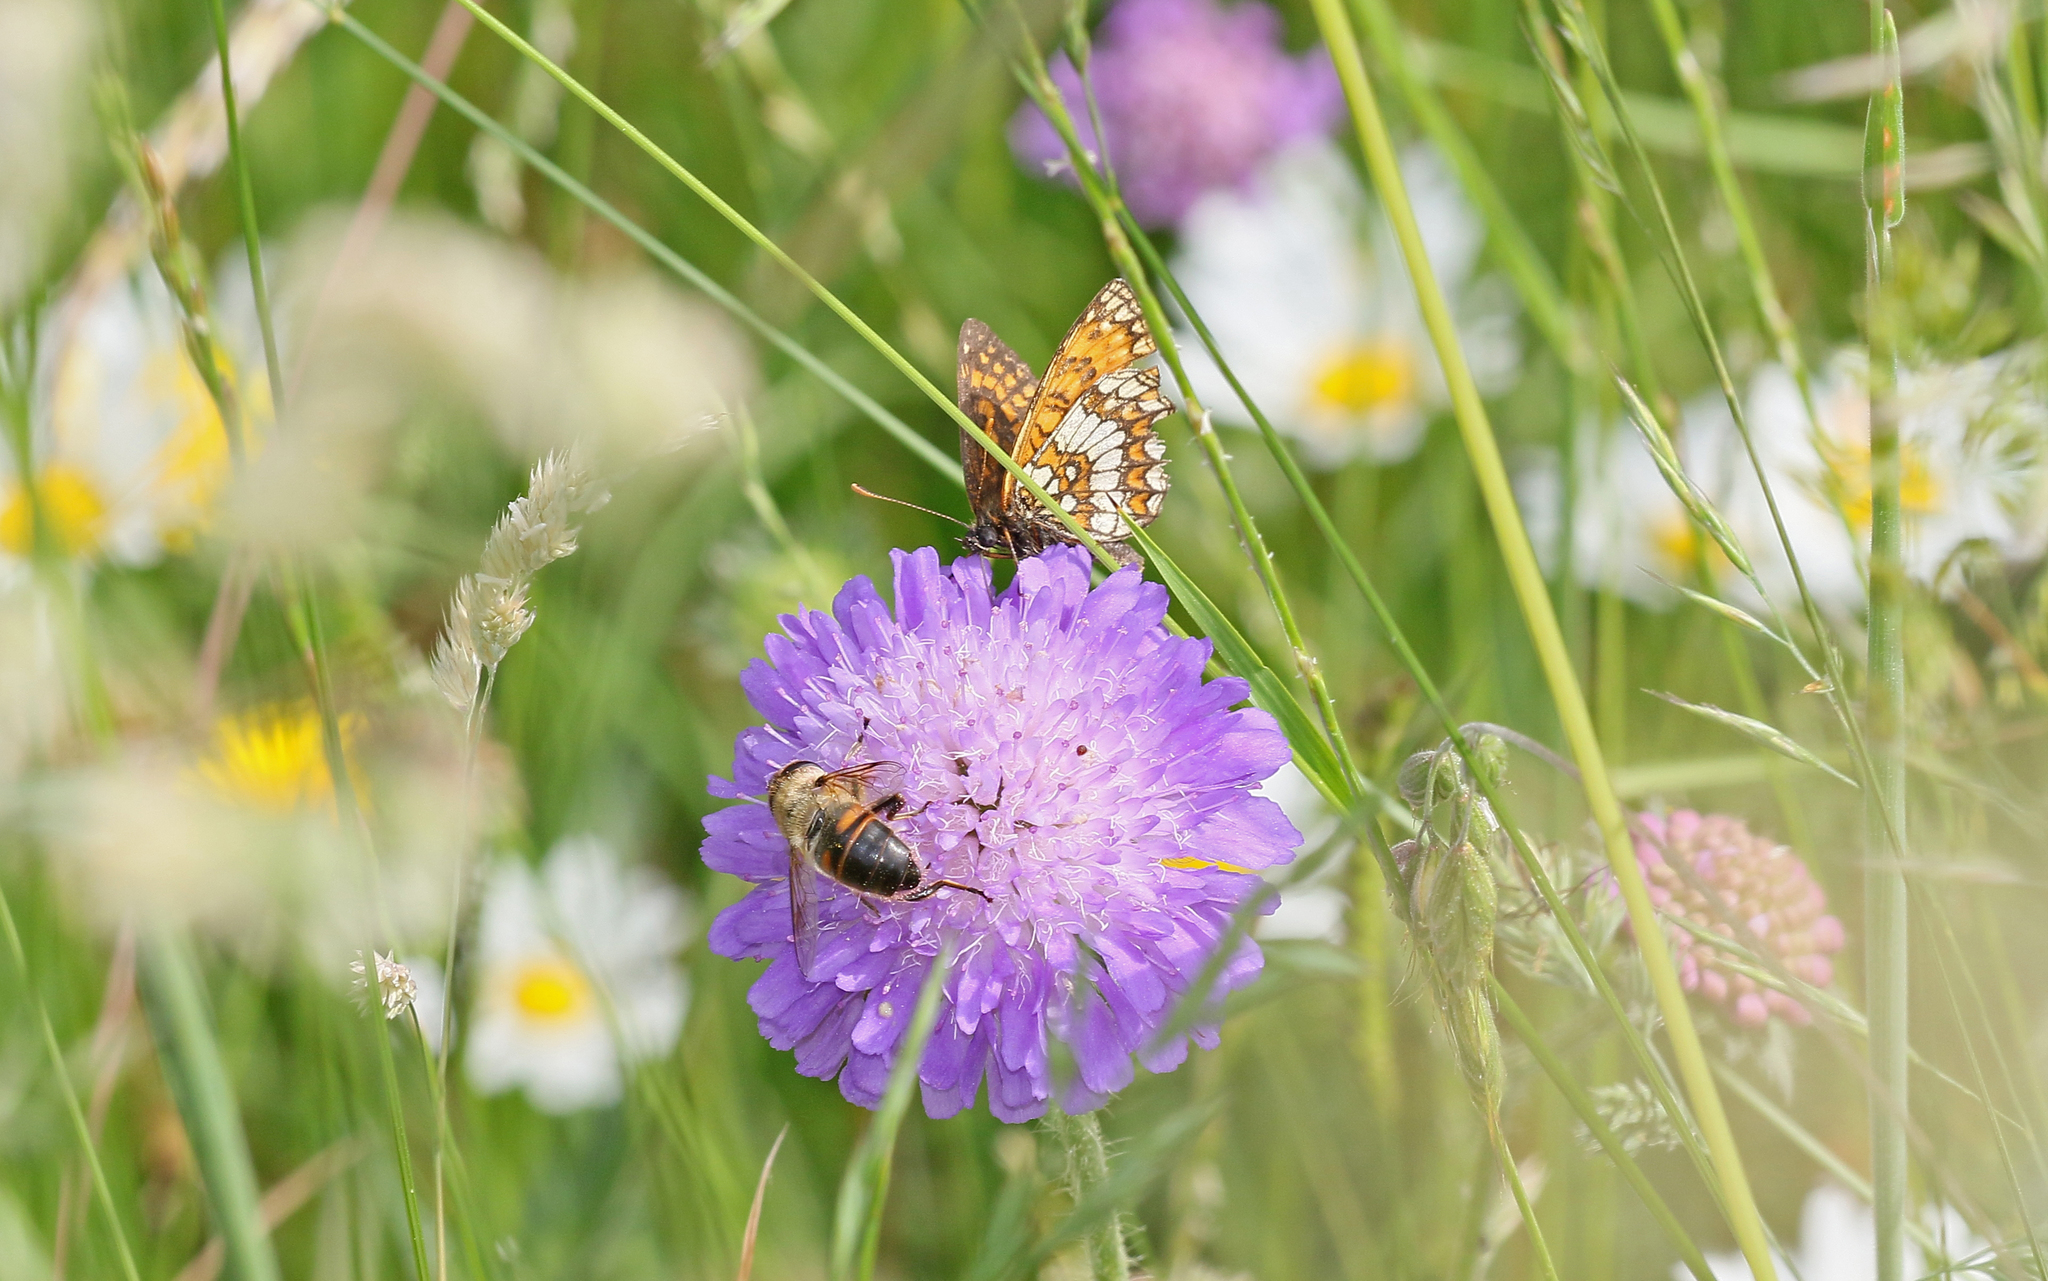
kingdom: Animalia
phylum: Arthropoda
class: Insecta
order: Lepidoptera
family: Nymphalidae
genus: Melitaea
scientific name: Melitaea athalia
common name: Heath fritillary
